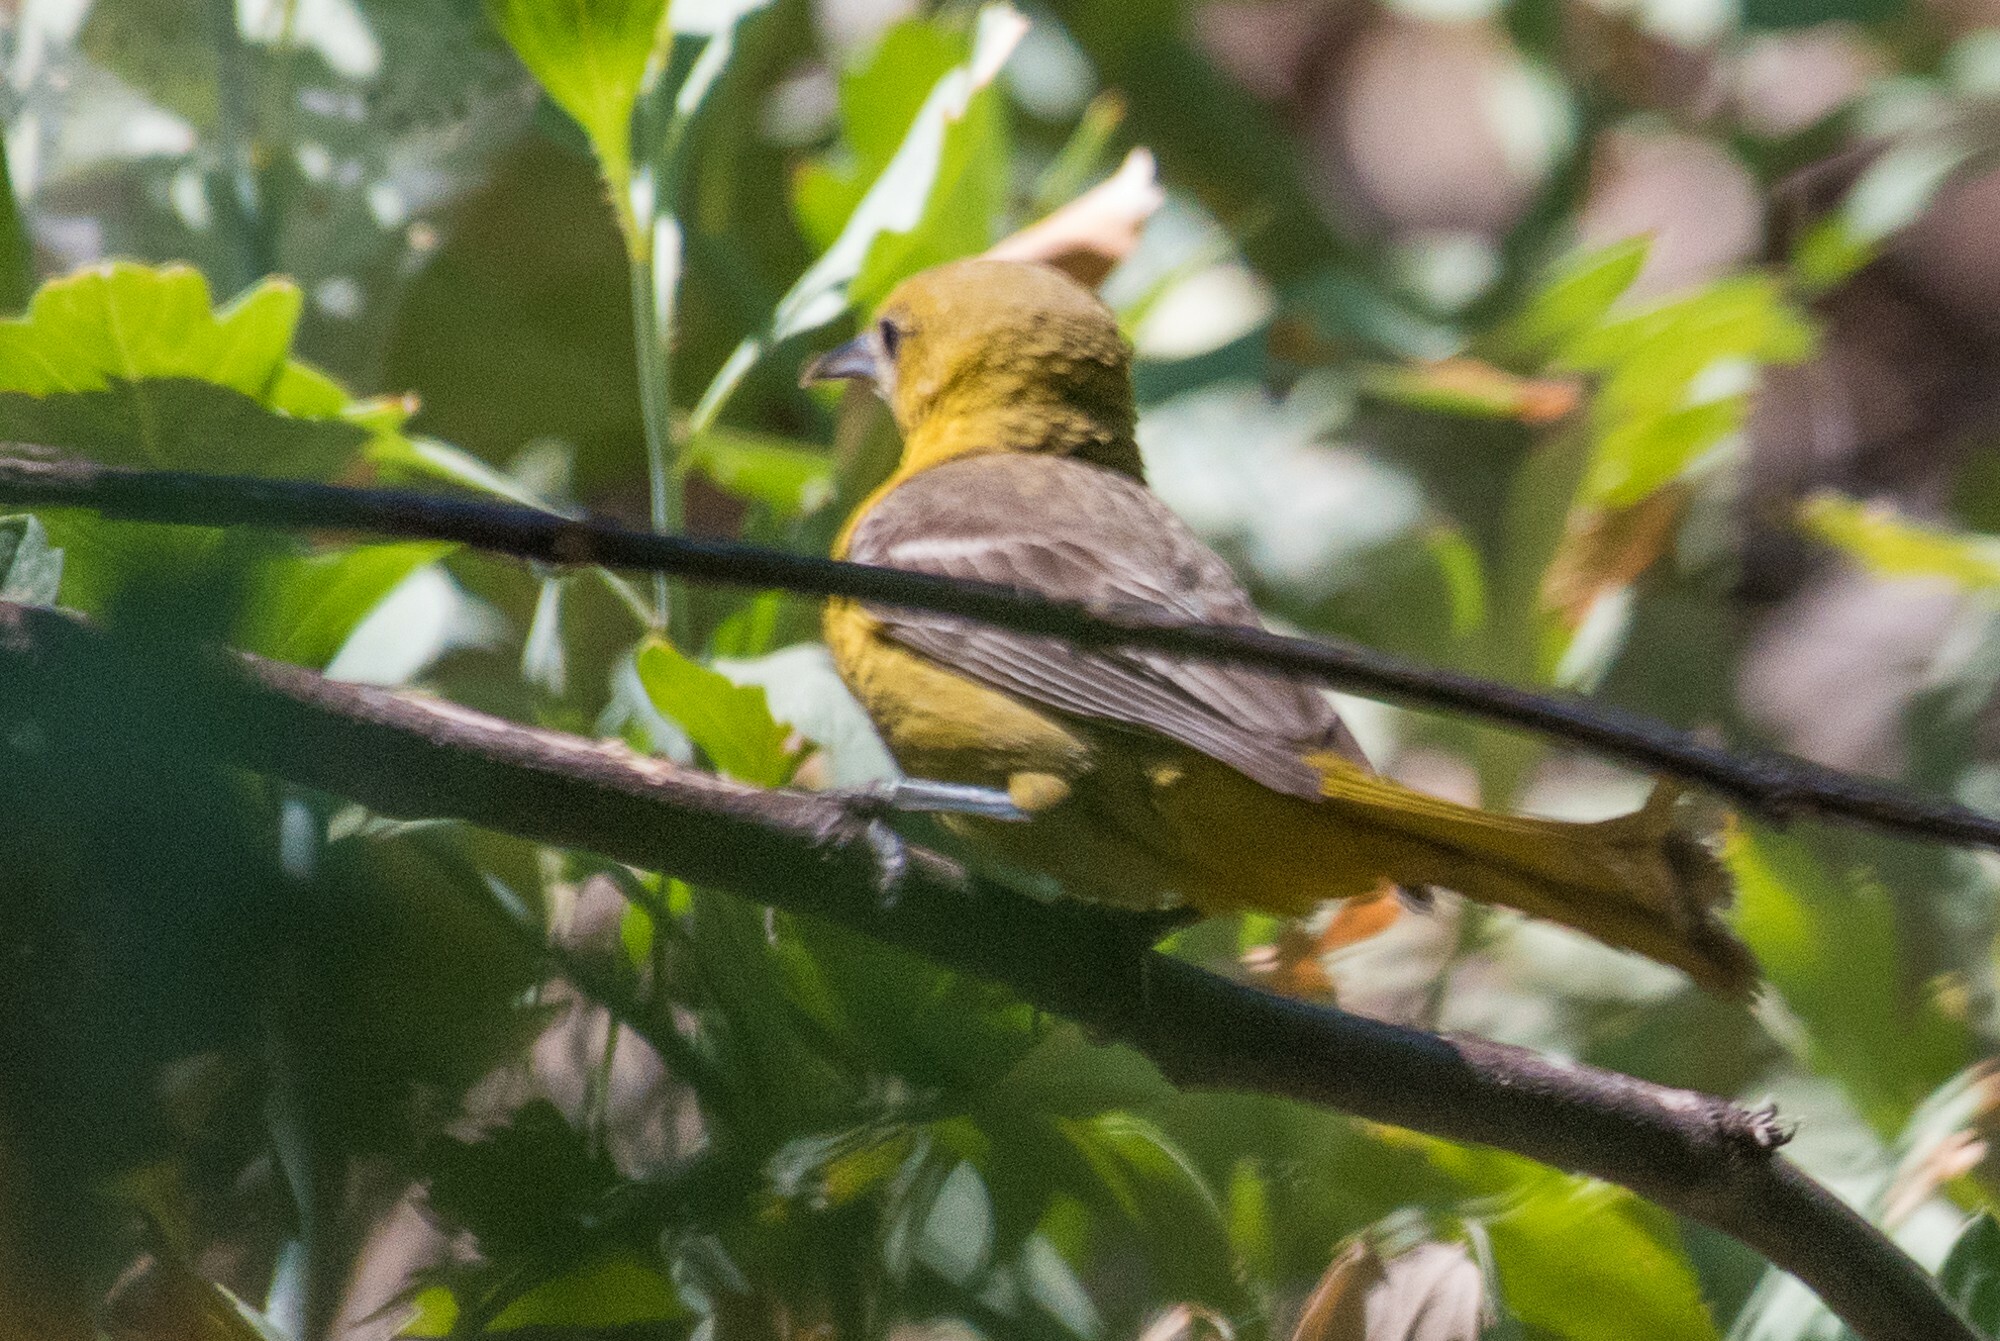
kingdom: Animalia
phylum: Chordata
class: Aves
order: Passeriformes
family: Icteridae
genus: Icterus
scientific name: Icterus cucullatus
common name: Hooded oriole
